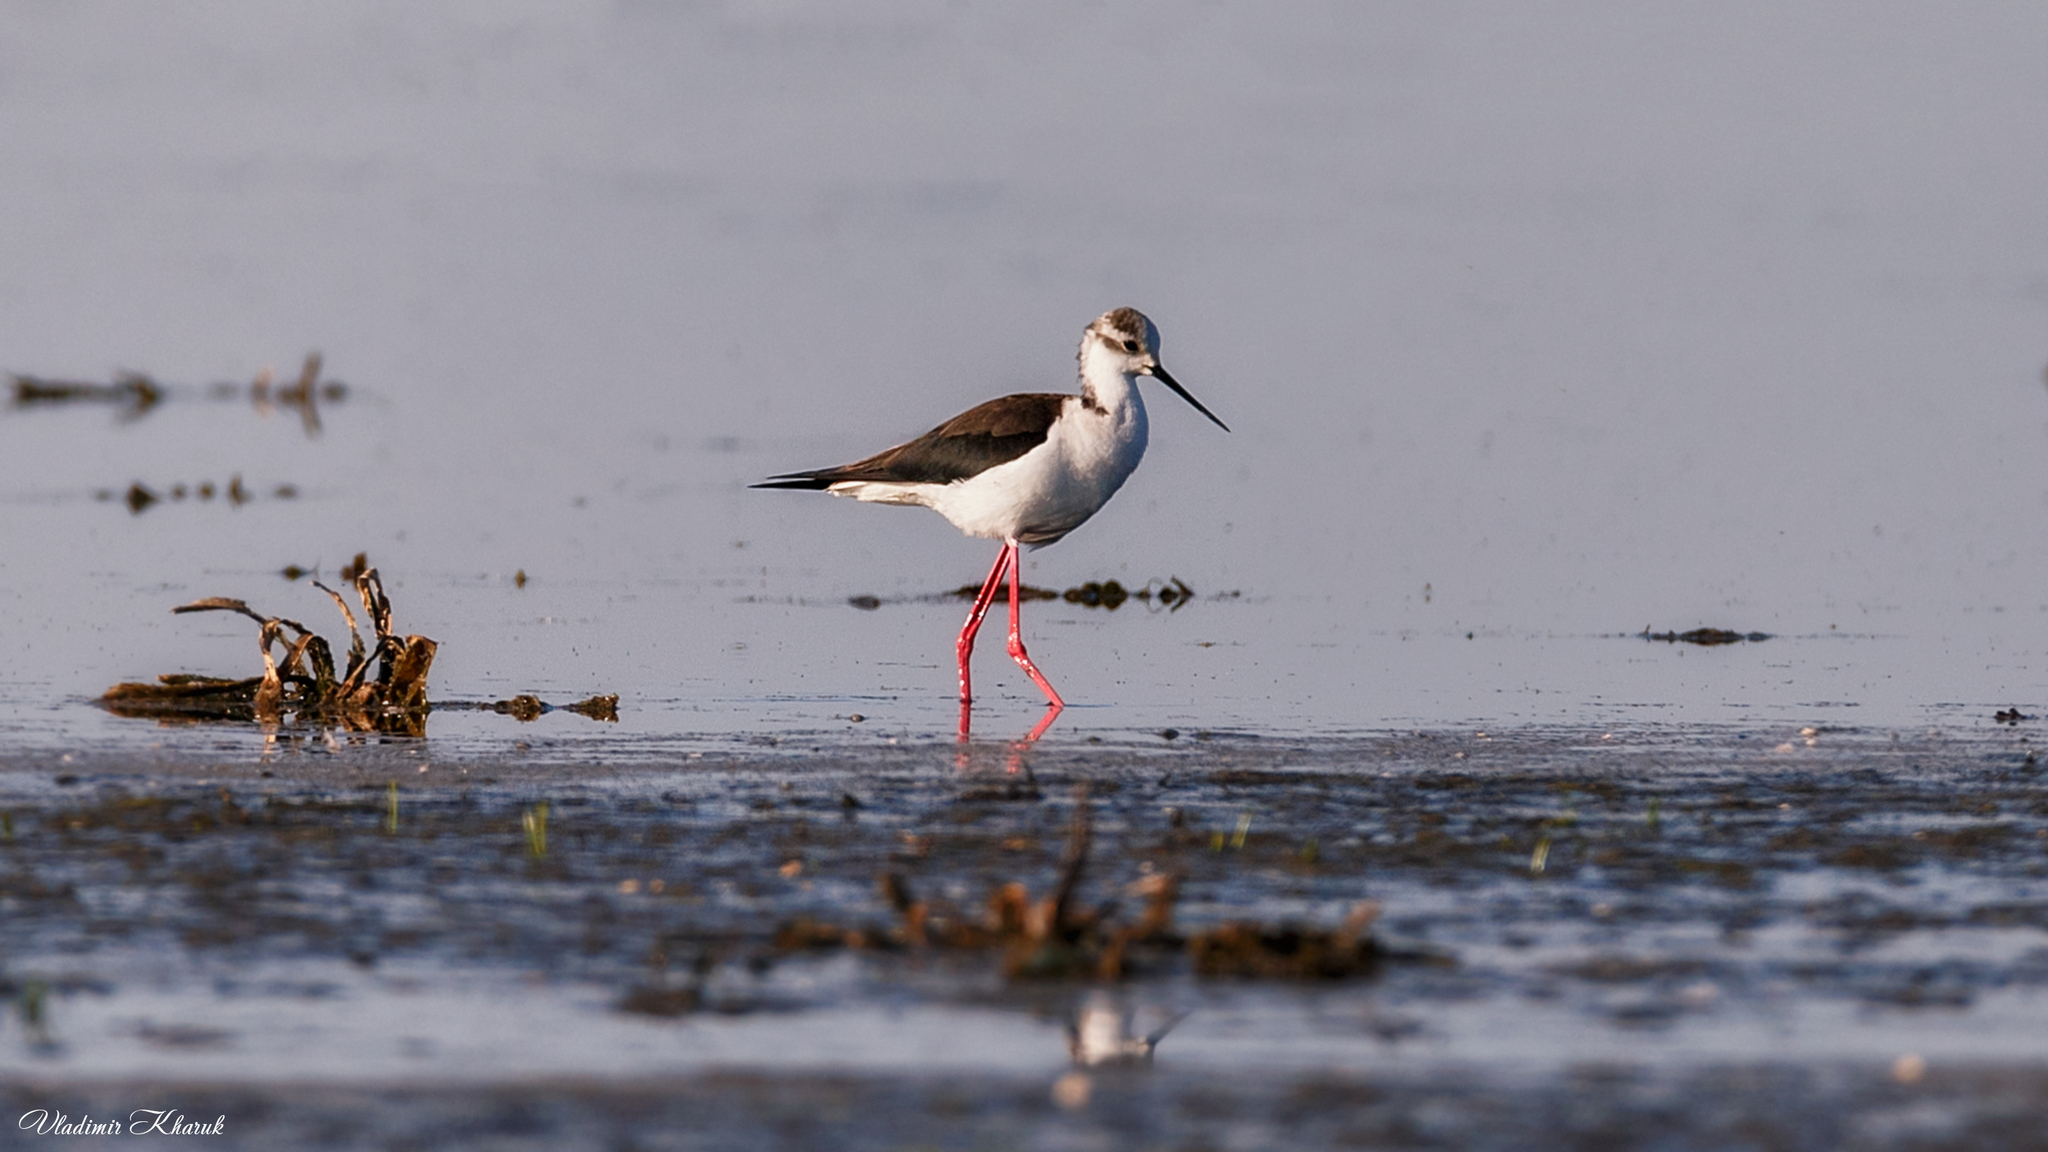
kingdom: Animalia
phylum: Chordata
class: Aves
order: Charadriiformes
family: Recurvirostridae
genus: Himantopus
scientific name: Himantopus himantopus
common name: Black-winged stilt
